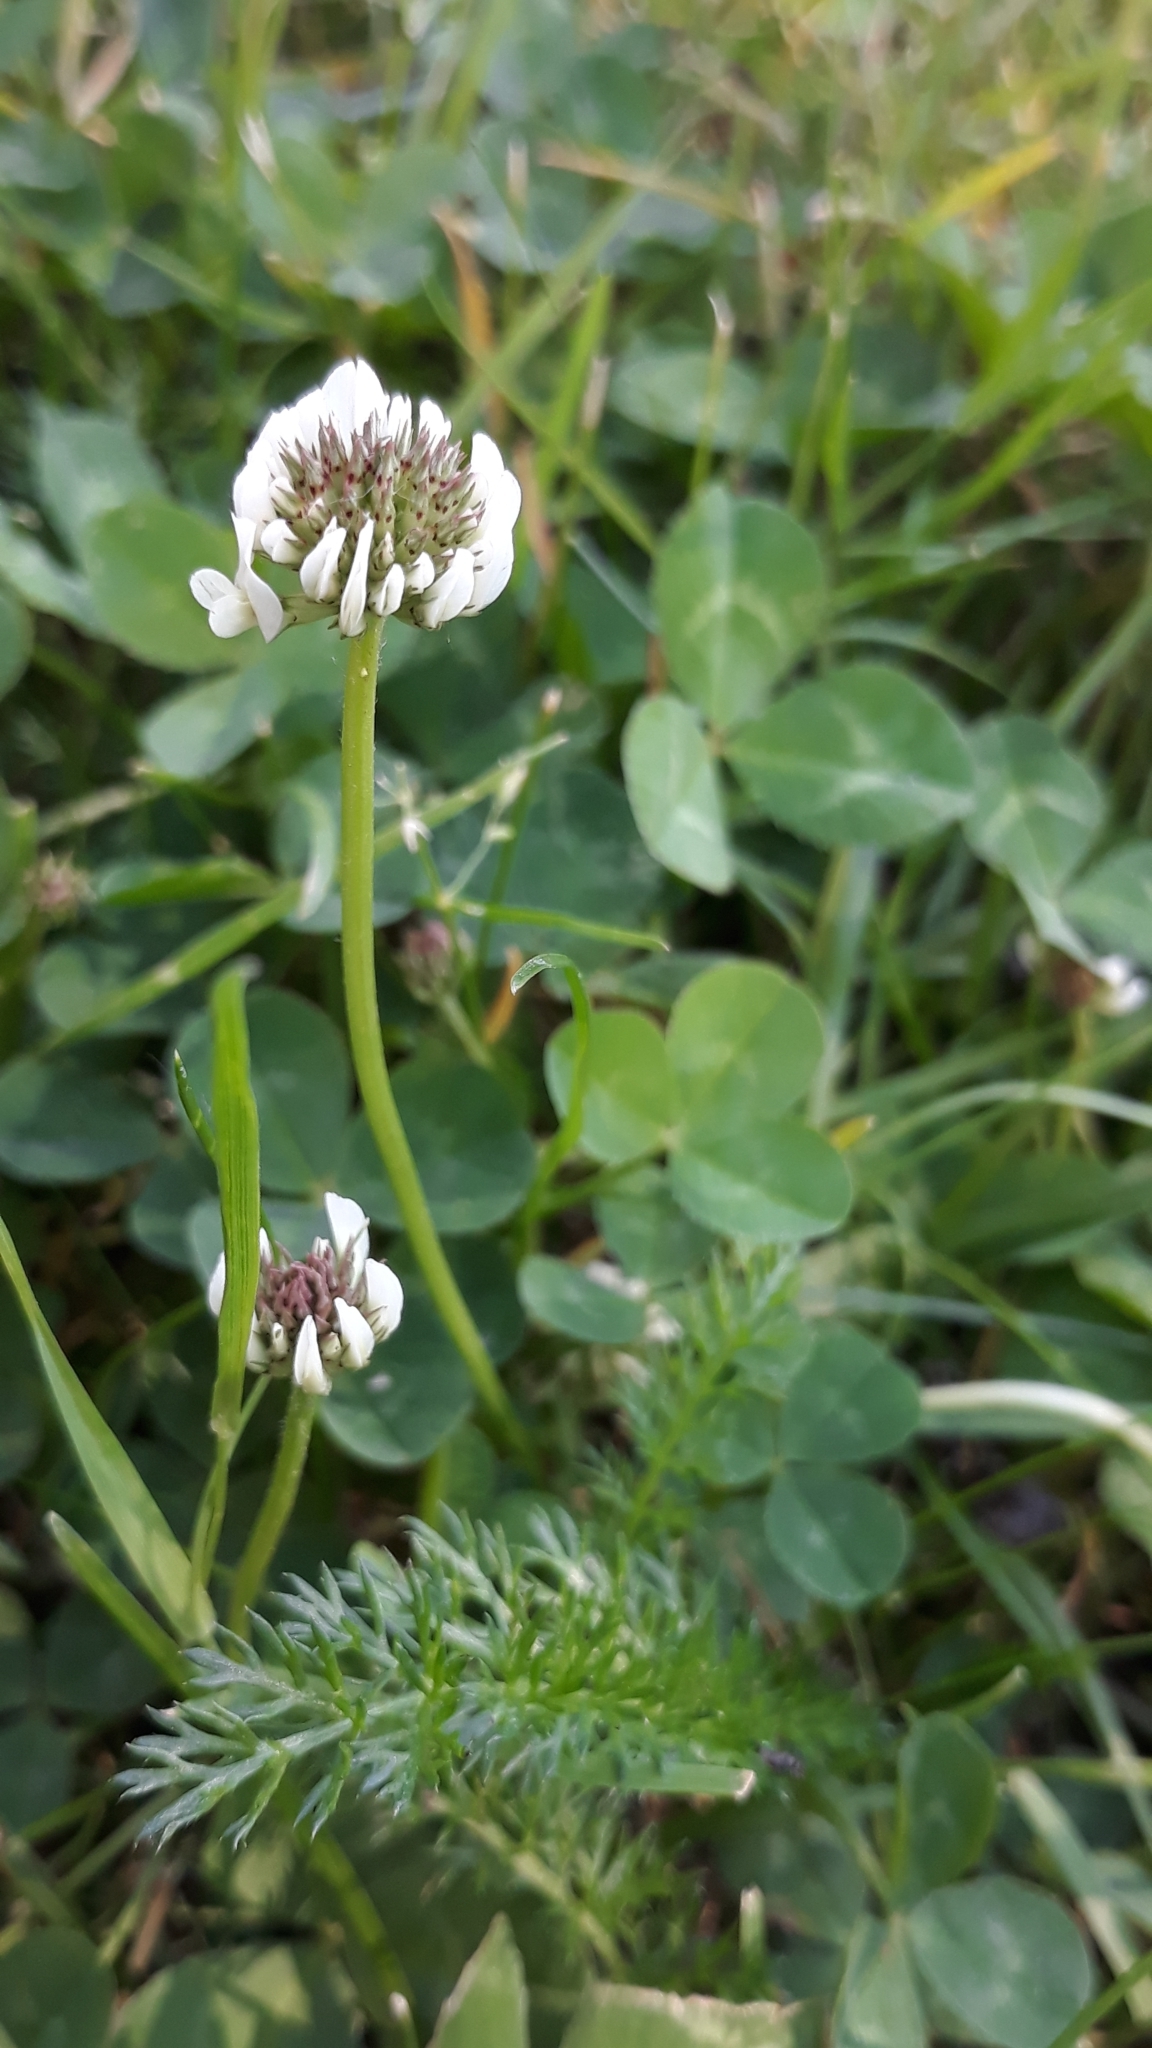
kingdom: Plantae
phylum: Tracheophyta
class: Magnoliopsida
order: Fabales
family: Fabaceae
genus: Trifolium
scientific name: Trifolium repens
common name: White clover
